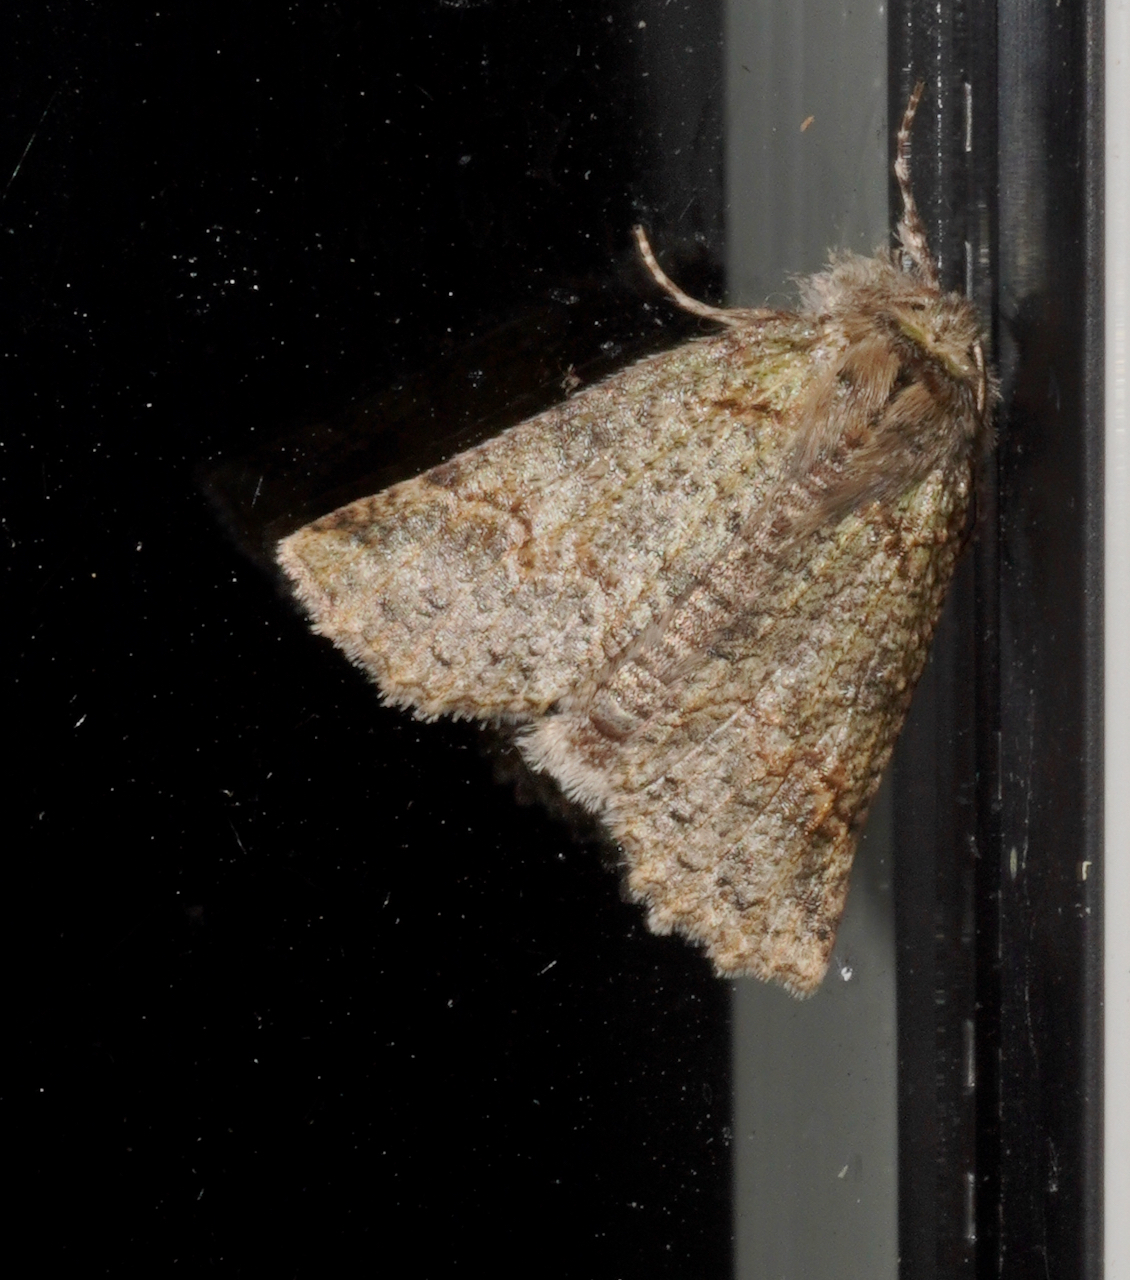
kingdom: Animalia
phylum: Arthropoda
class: Insecta
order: Lepidoptera
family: Geometridae
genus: Declana
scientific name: Declana floccosa
